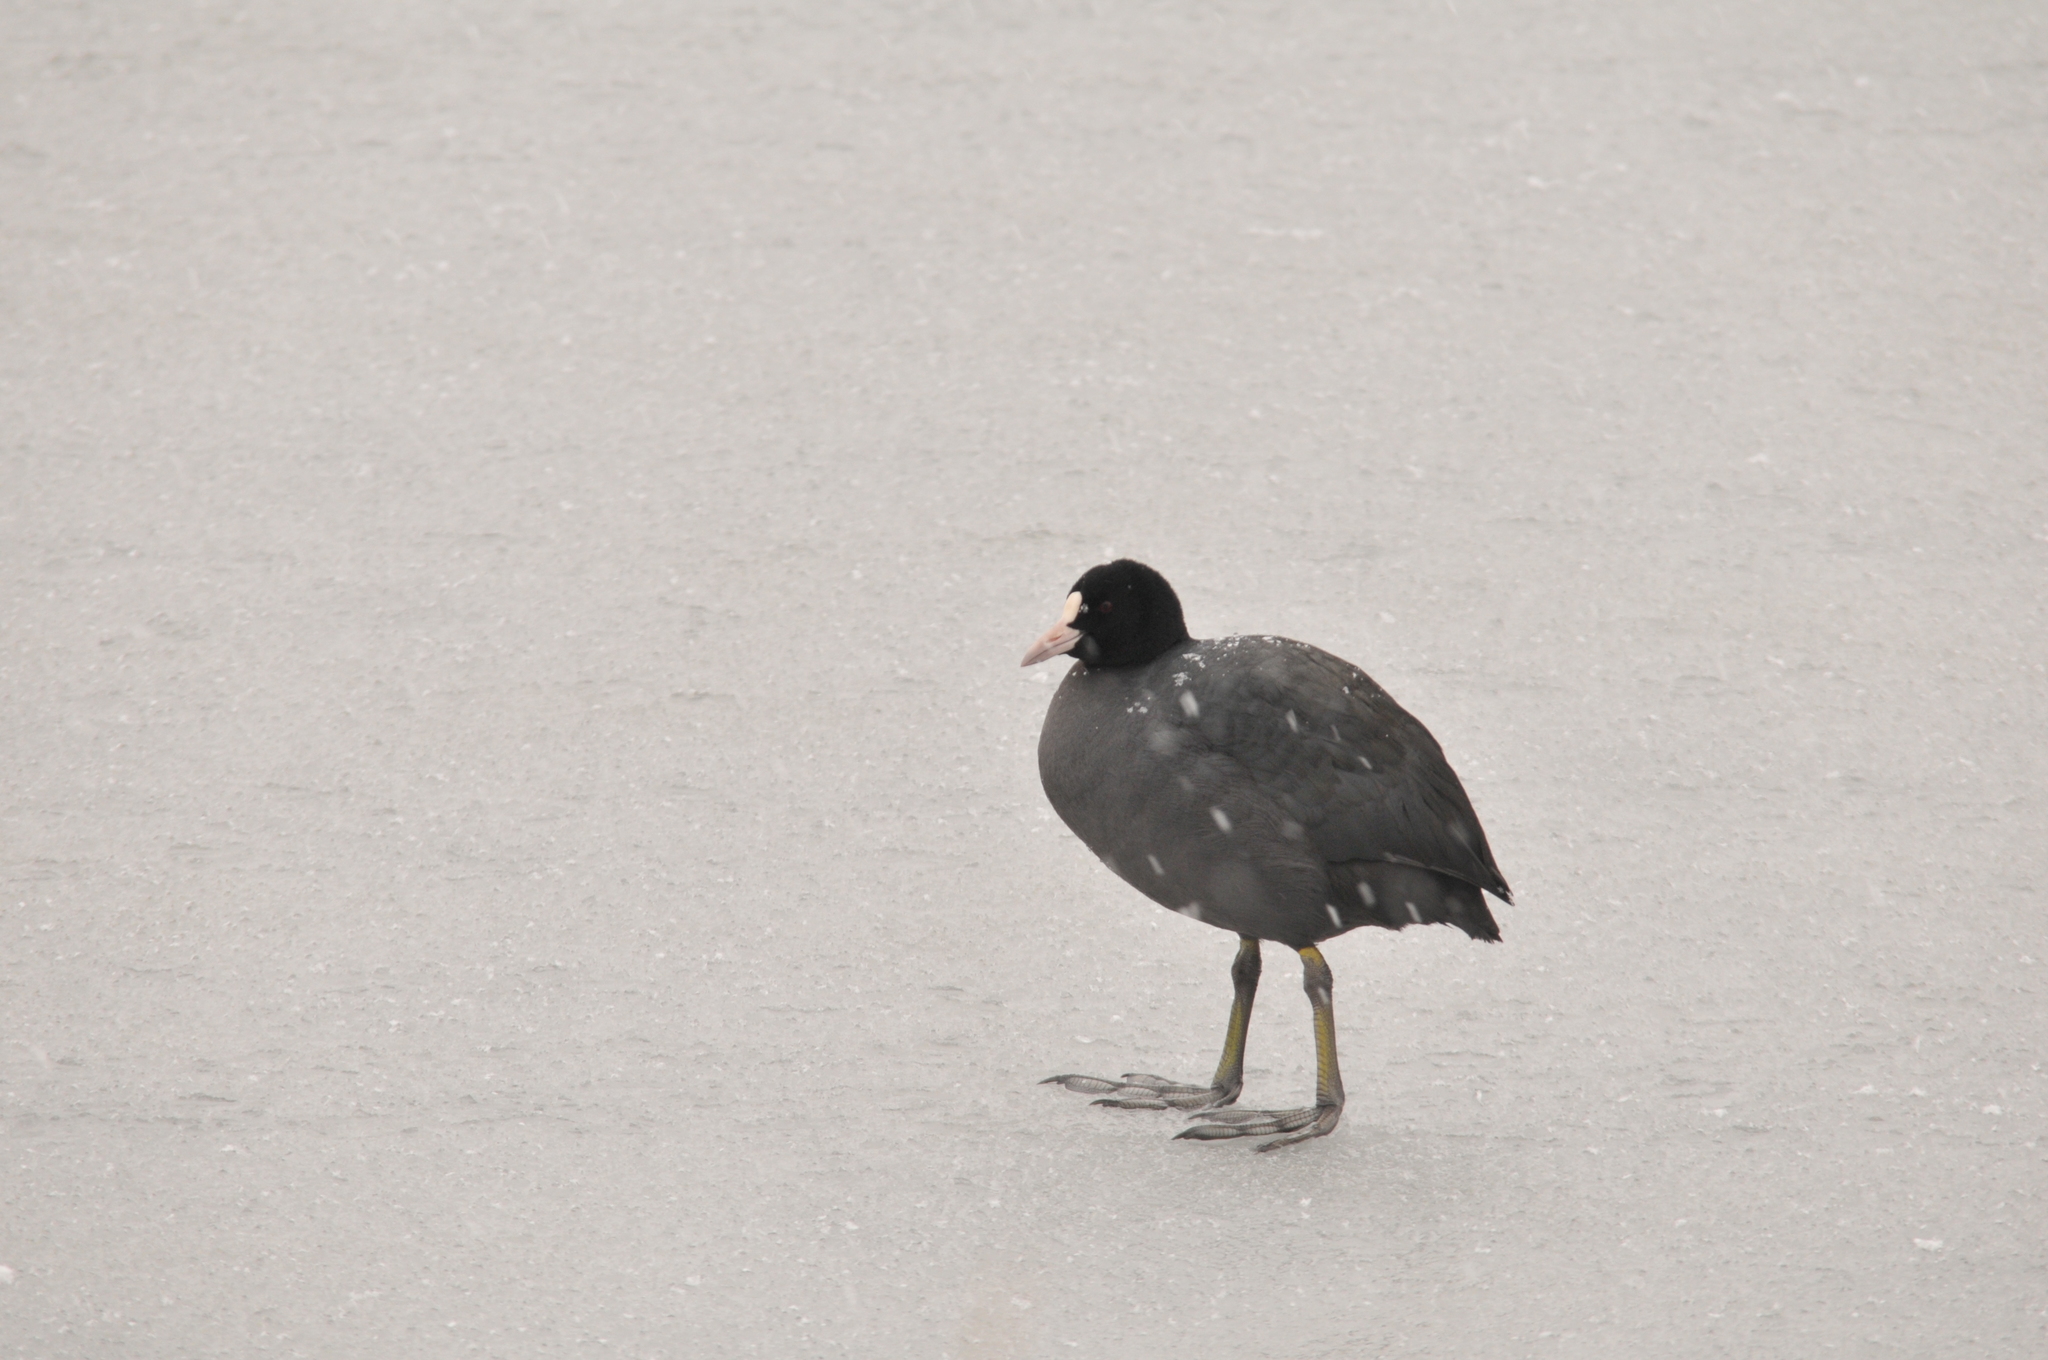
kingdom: Animalia
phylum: Chordata
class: Aves
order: Gruiformes
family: Rallidae
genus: Fulica
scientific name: Fulica atra
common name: Eurasian coot
